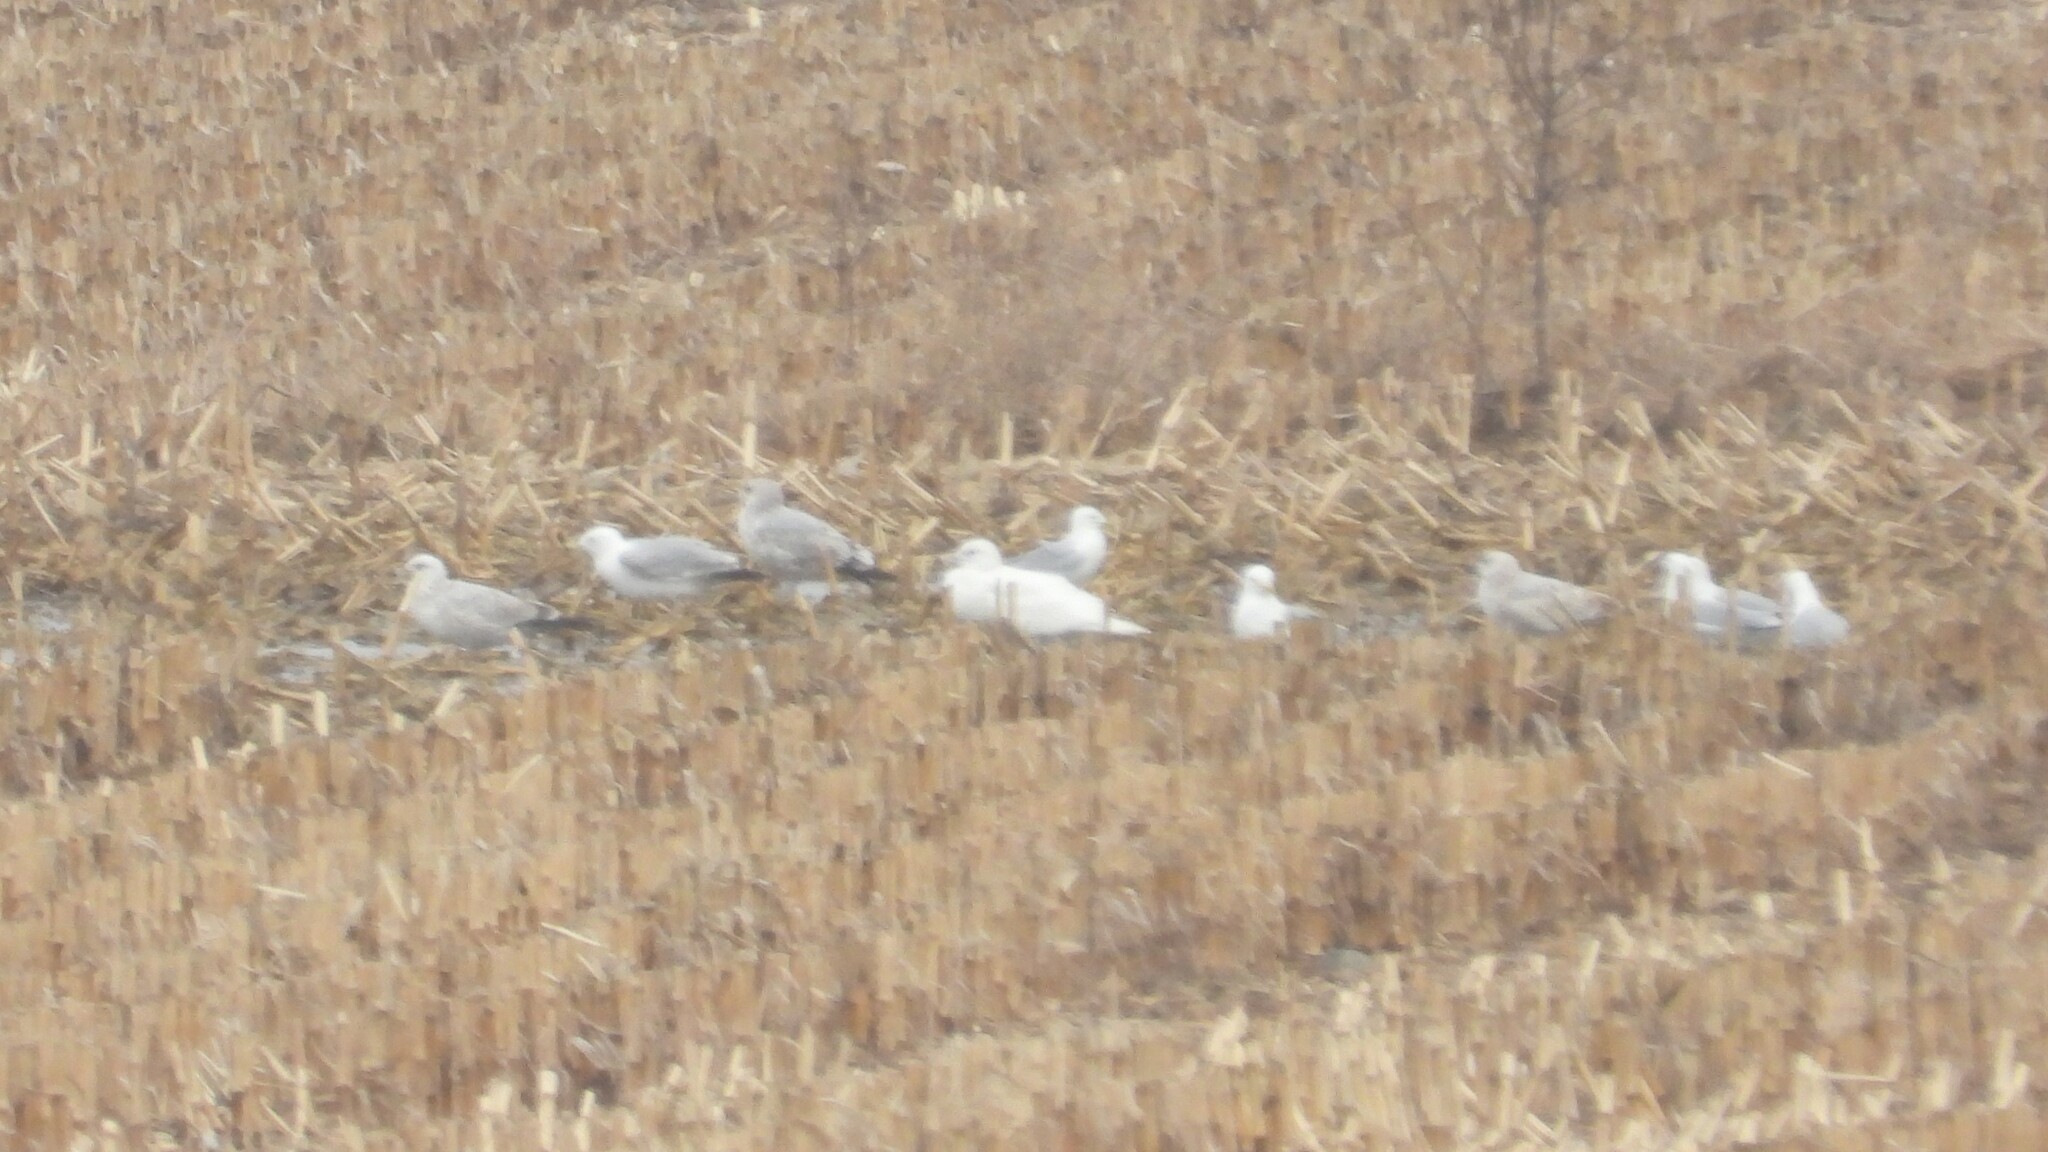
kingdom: Animalia
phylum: Chordata
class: Aves
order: Charadriiformes
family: Laridae
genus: Larus
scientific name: Larus hyperboreus
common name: Glaucous gull
